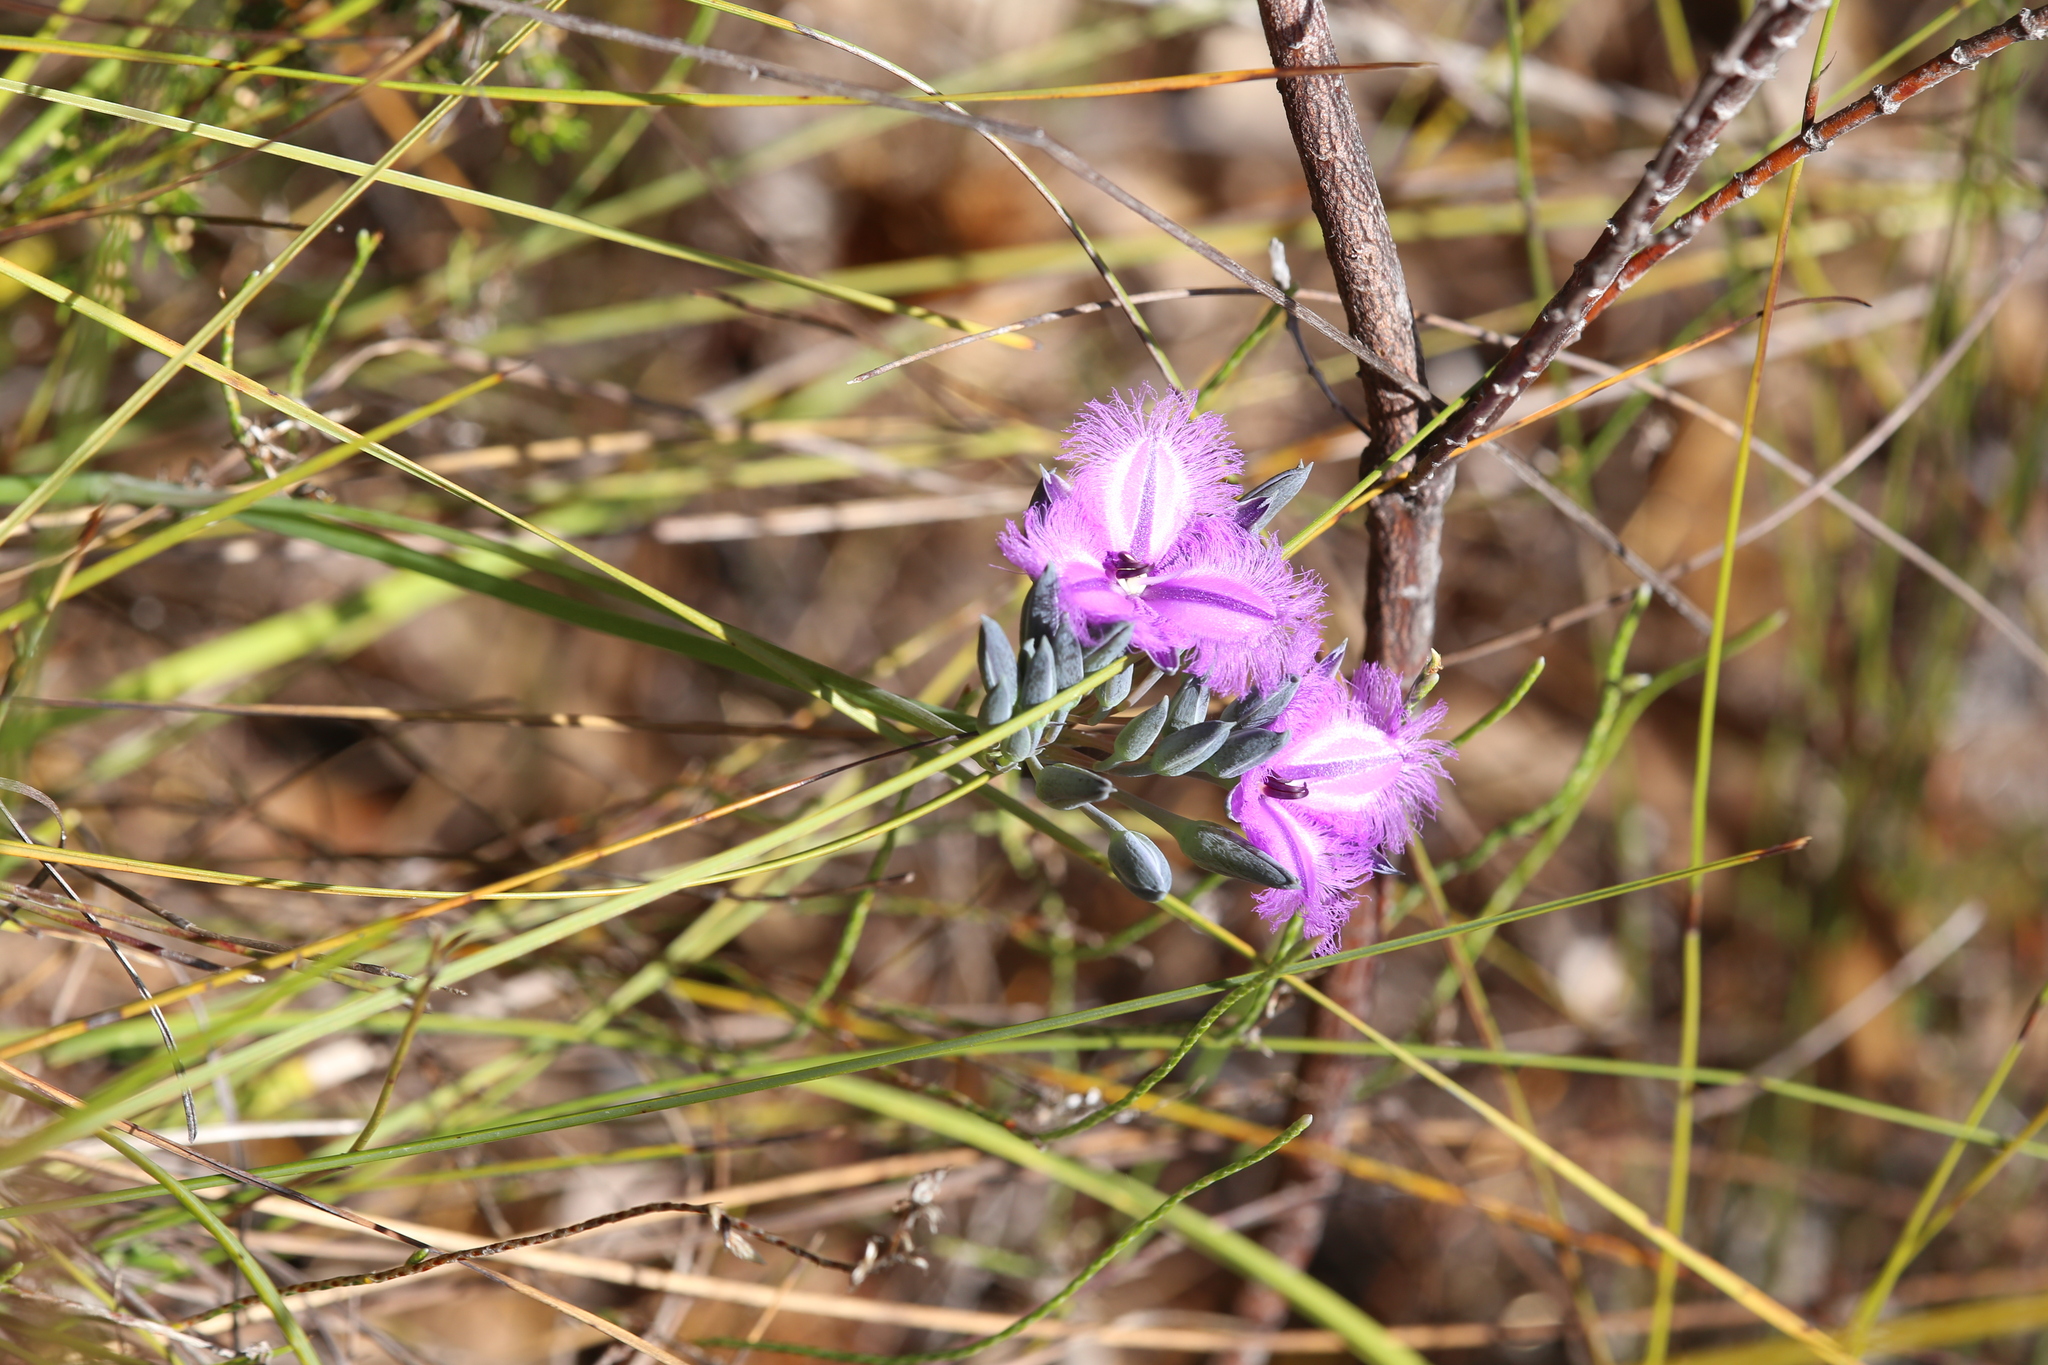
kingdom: Plantae
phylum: Tracheophyta
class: Liliopsida
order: Asparagales
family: Asparagaceae
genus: Thysanotus
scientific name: Thysanotus multiflorus
